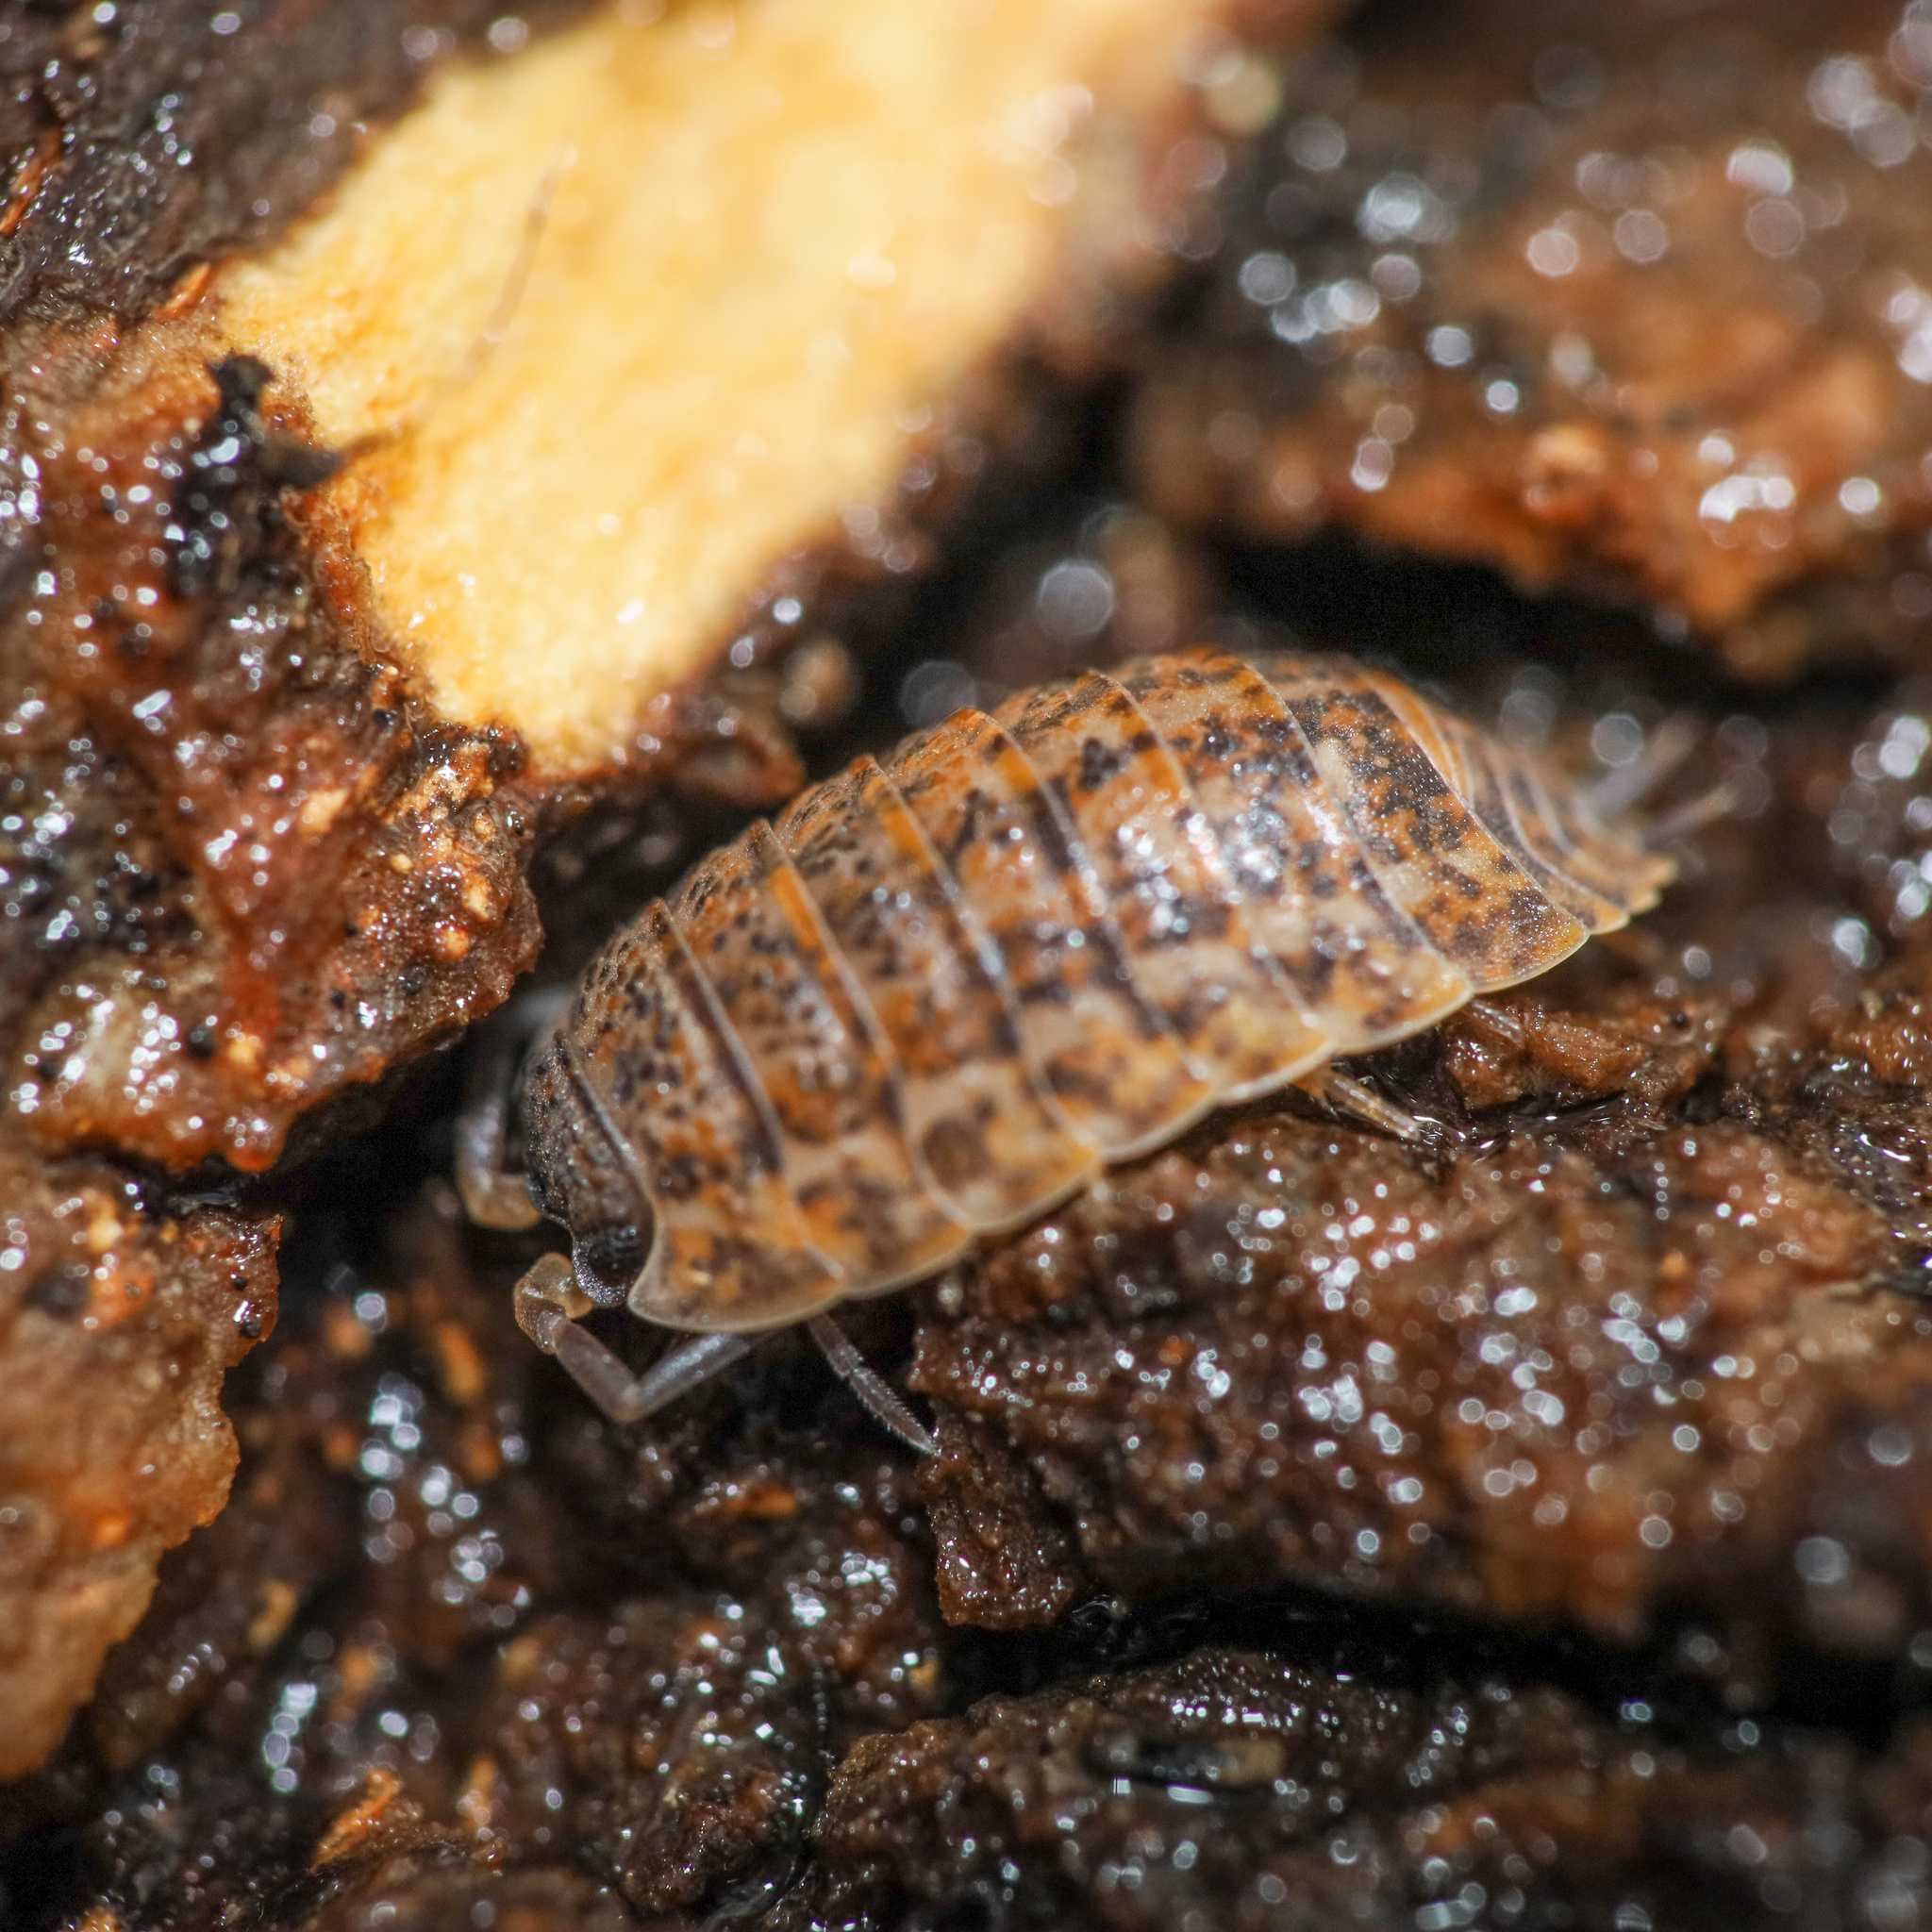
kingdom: Animalia
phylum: Arthropoda
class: Malacostraca
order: Isopoda
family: Trachelipodidae
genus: Trachelipus
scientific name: Trachelipus rathkii
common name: Isopod
